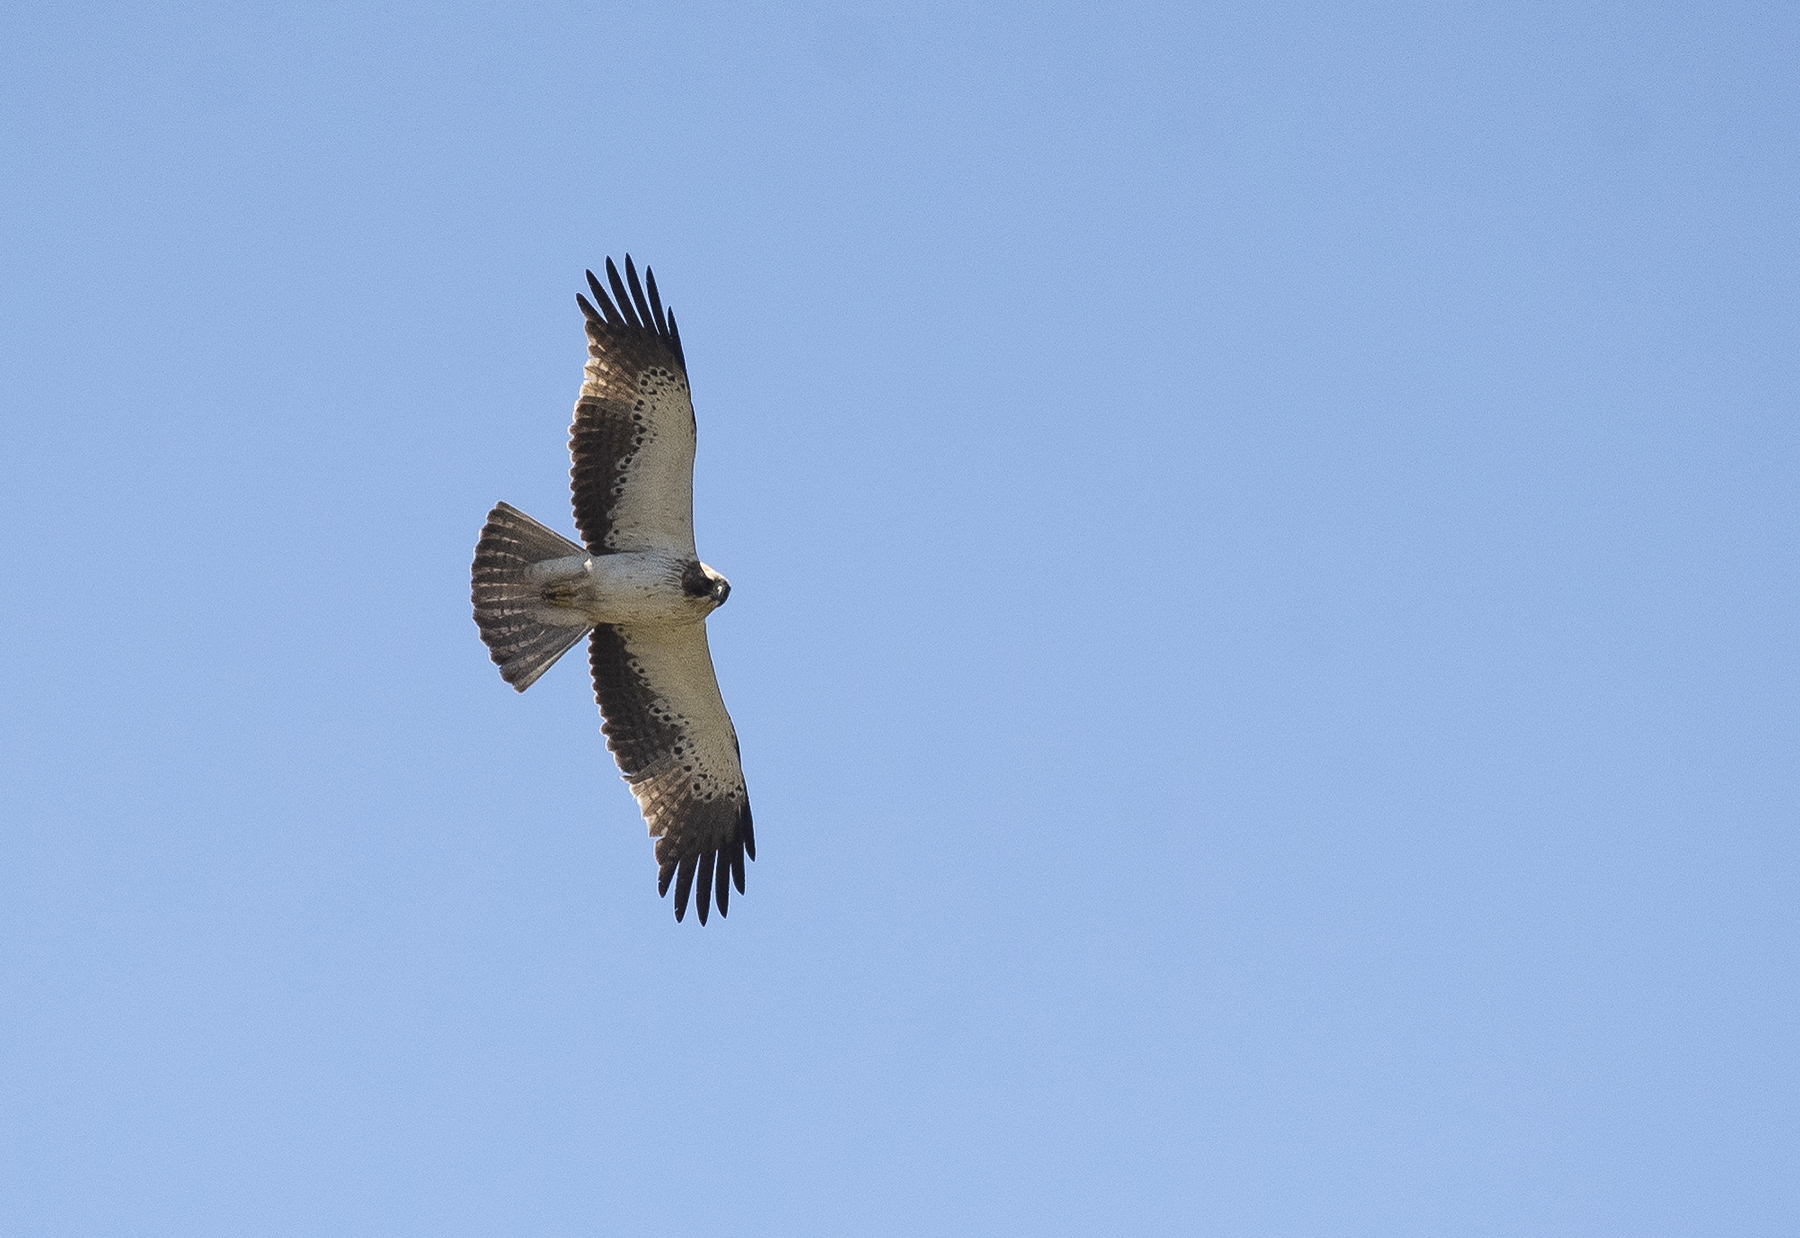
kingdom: Animalia
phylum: Chordata
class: Aves
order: Accipitriformes
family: Accipitridae
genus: Hieraaetus
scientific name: Hieraaetus pennatus
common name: Booted eagle
